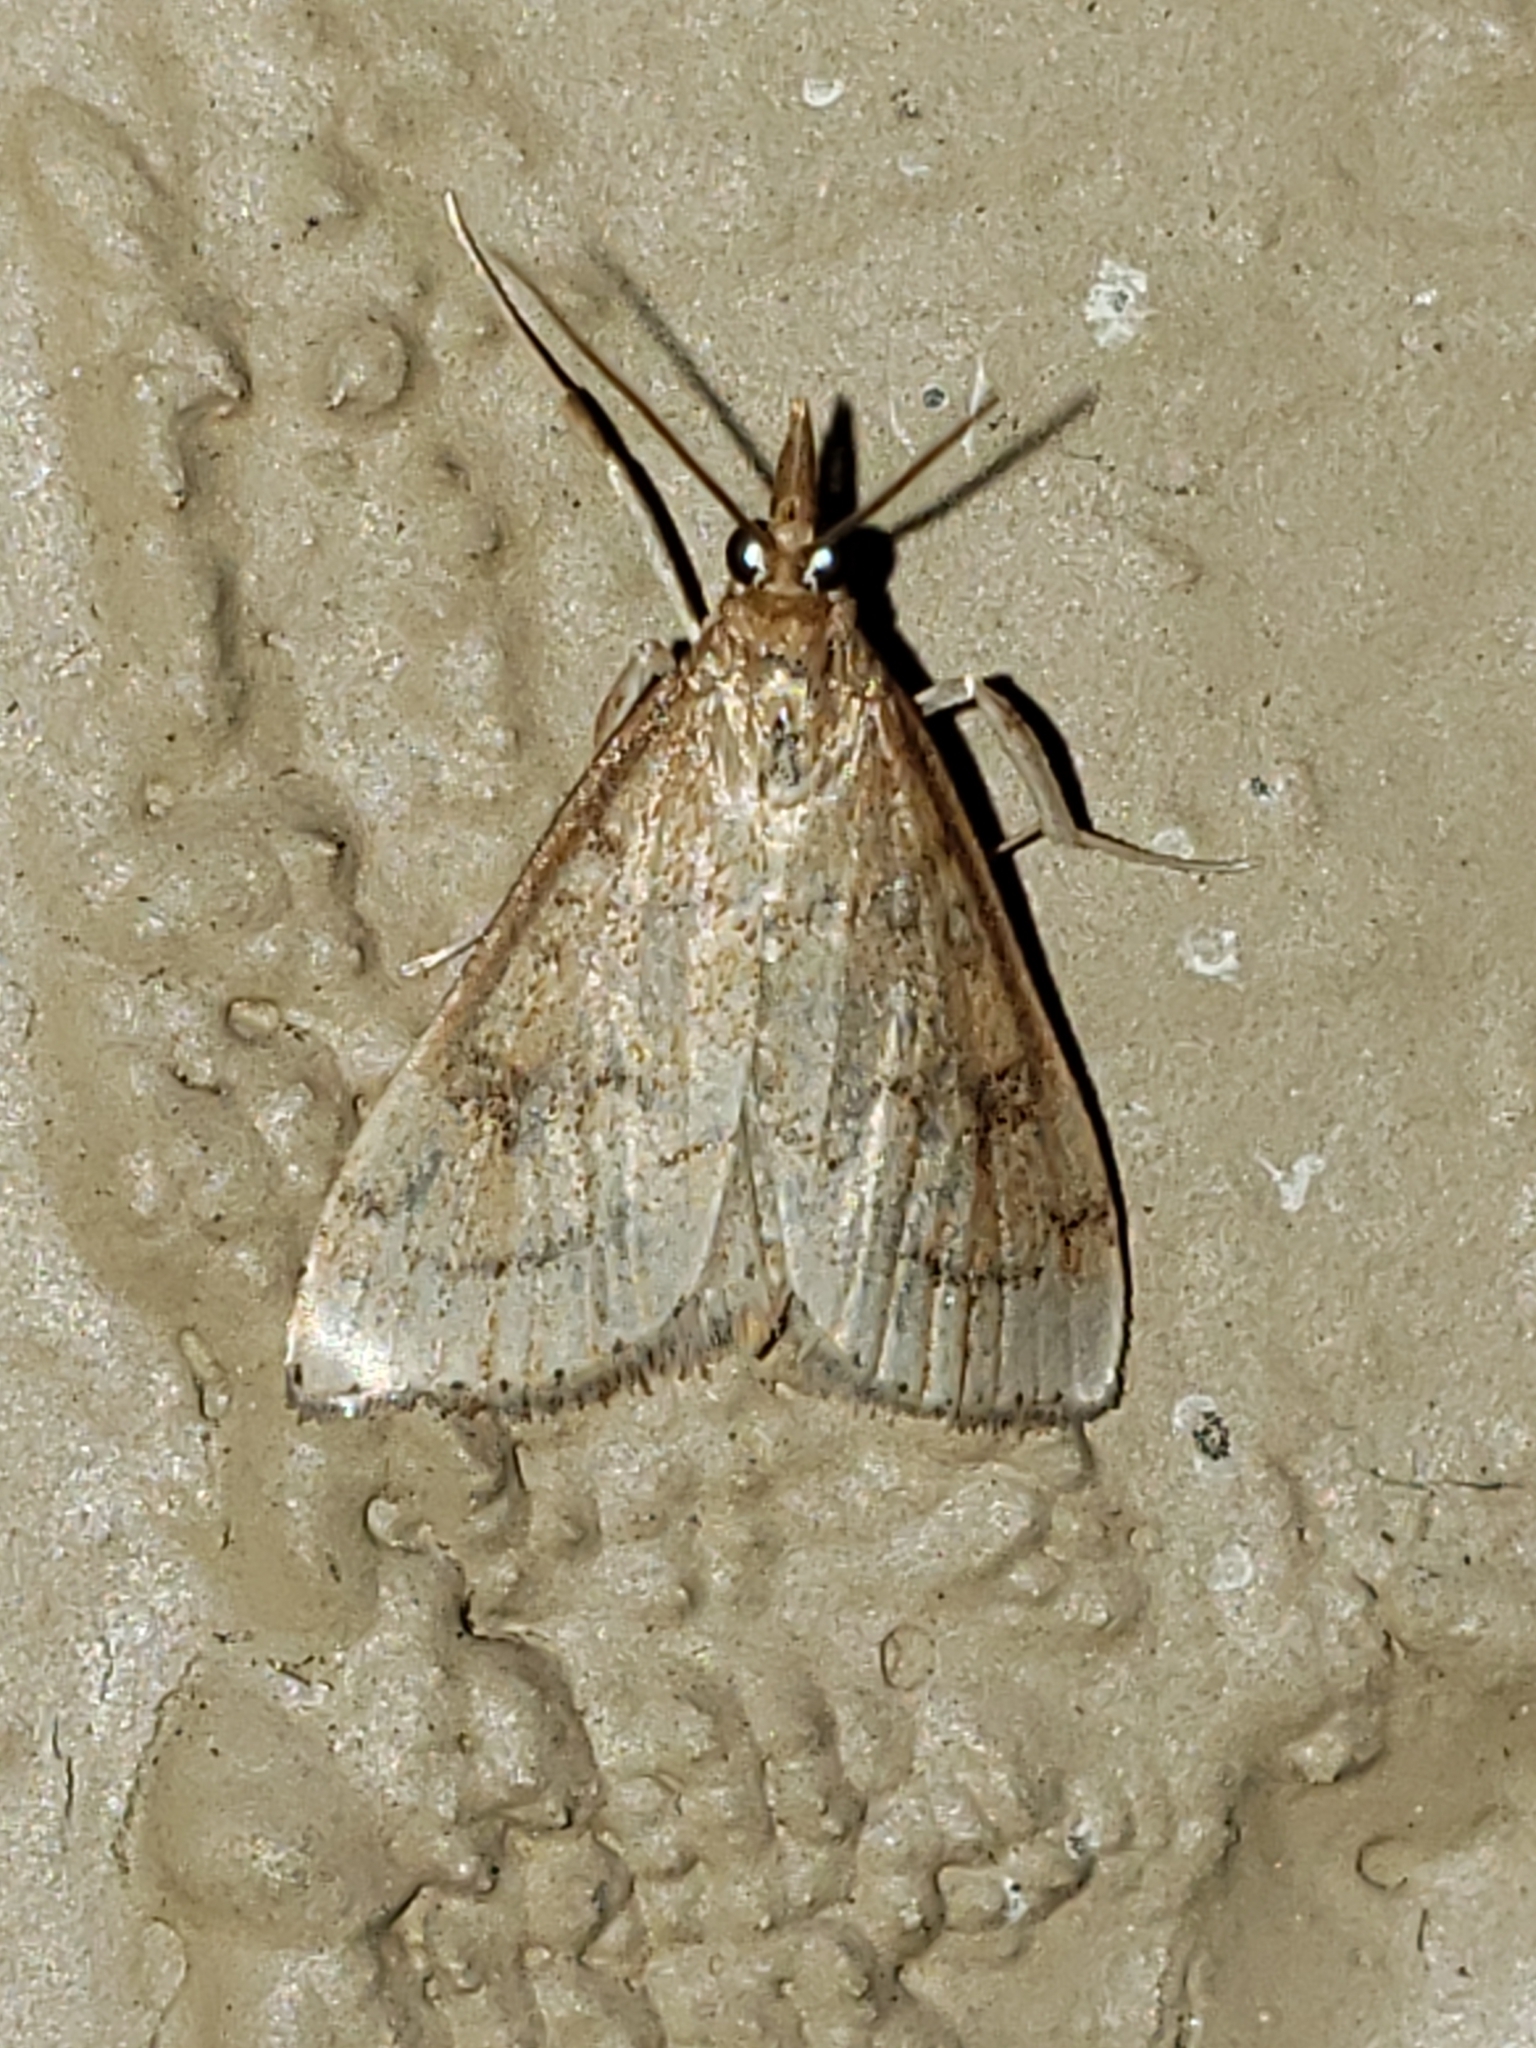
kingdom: Animalia
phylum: Arthropoda
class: Insecta
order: Lepidoptera
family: Crambidae
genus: Udea
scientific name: Udea rubigalis
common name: Celery leaftier moth
